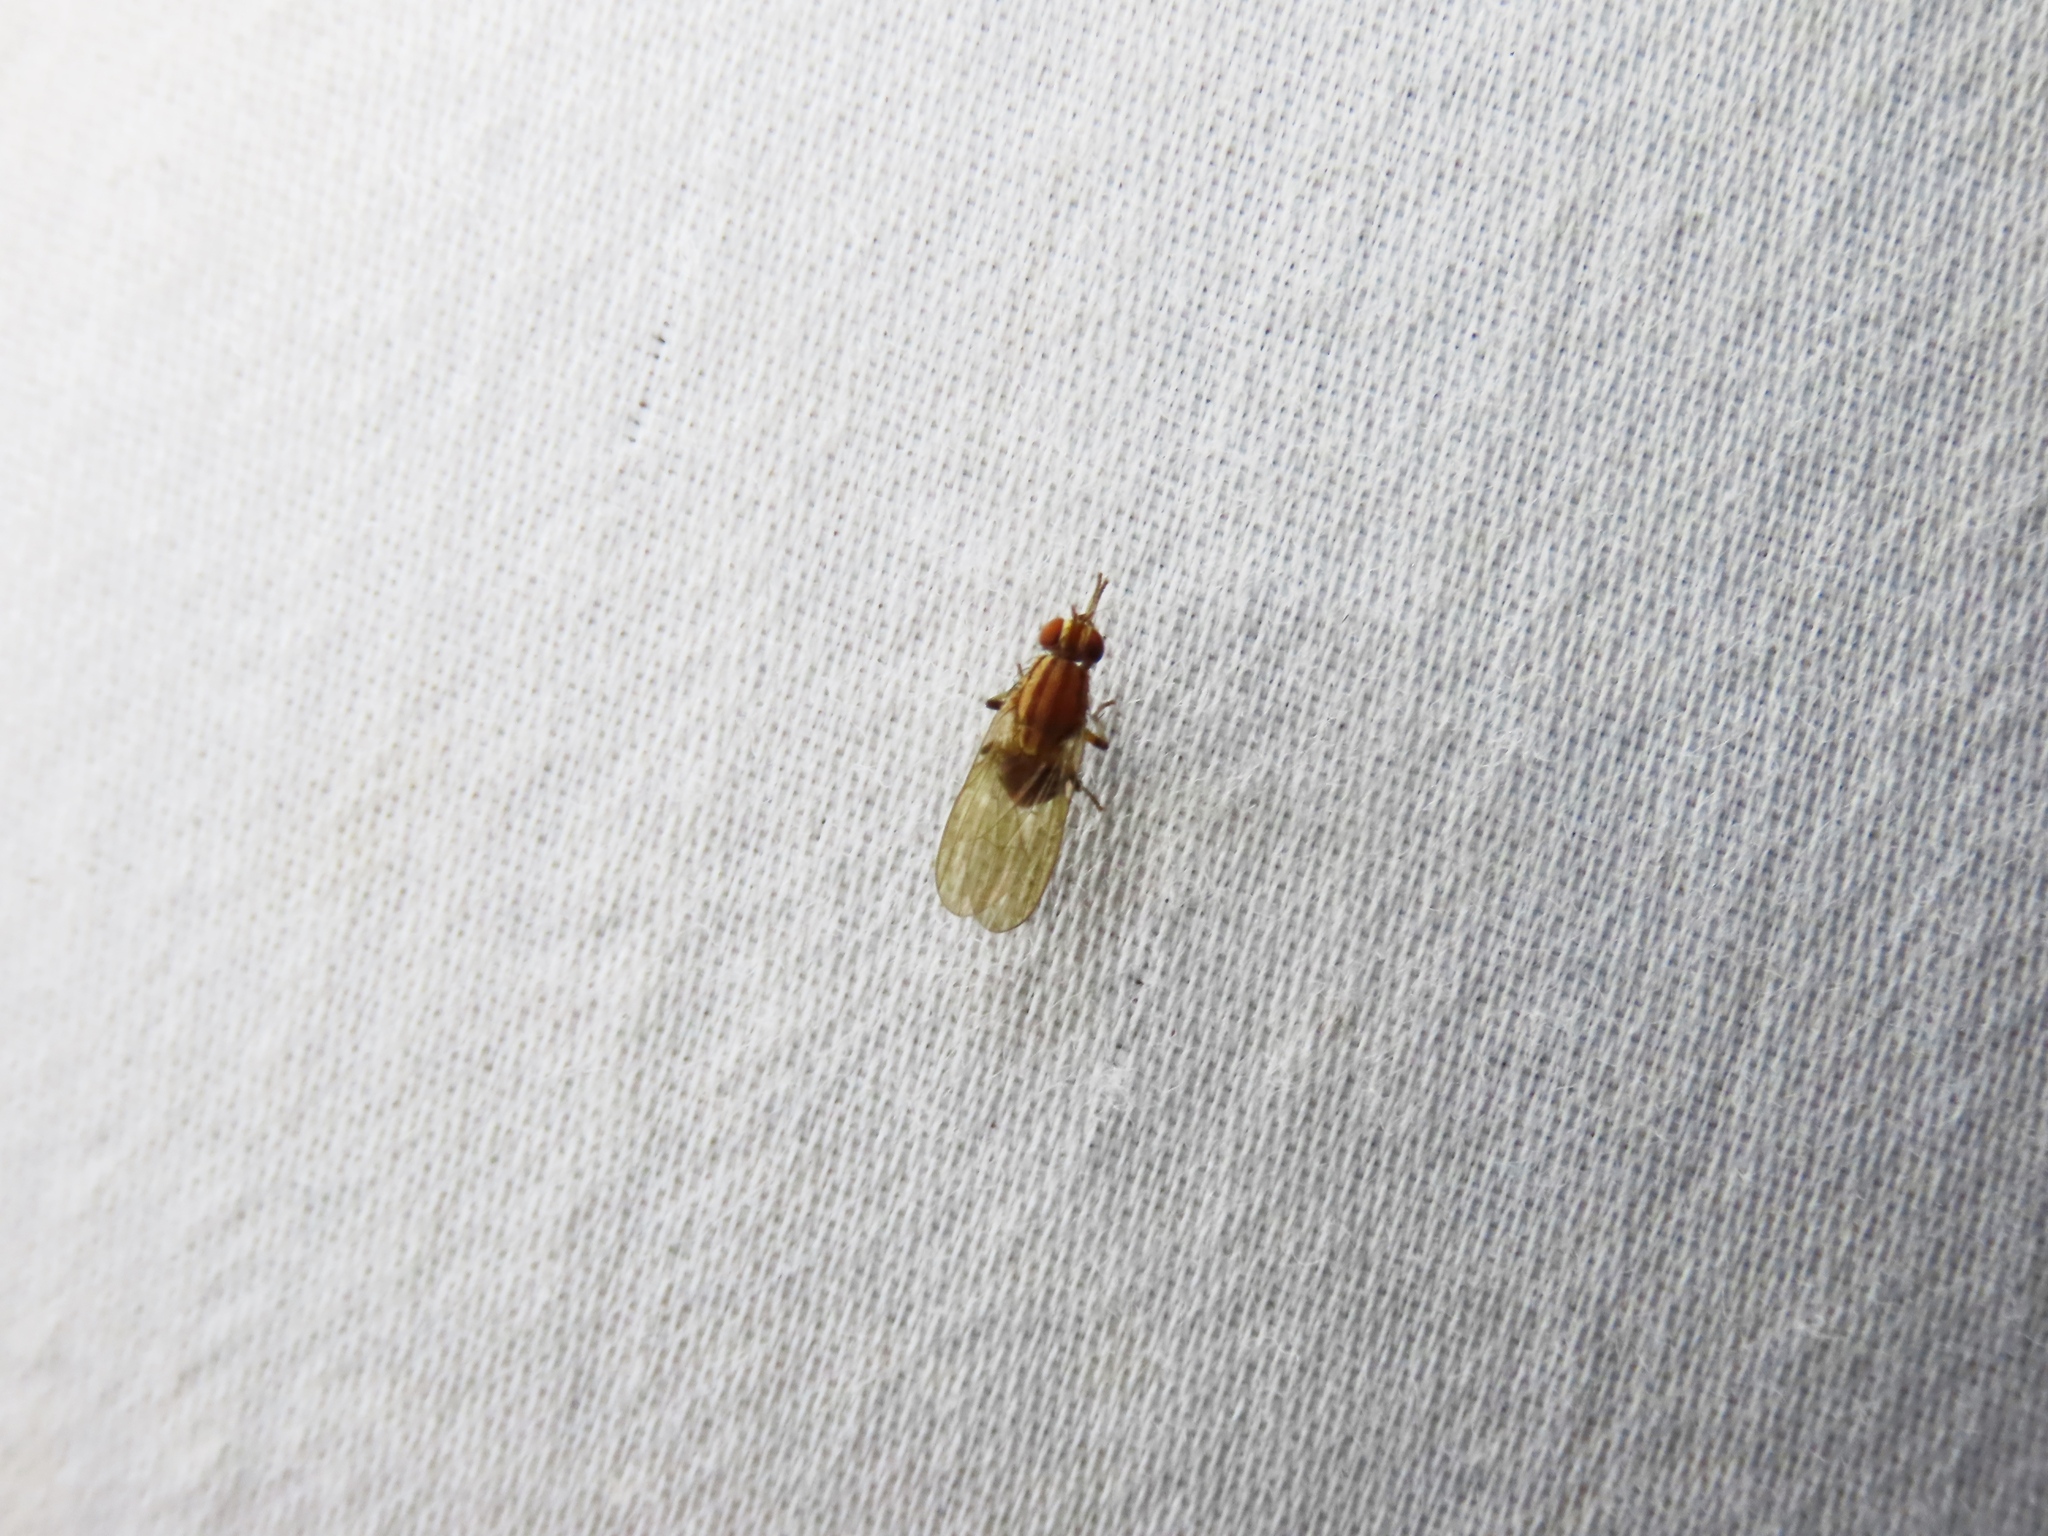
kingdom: Animalia
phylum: Arthropoda
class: Insecta
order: Diptera
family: Lauxaniidae
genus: Sapromyza
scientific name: Sapromyza brunneovittata
